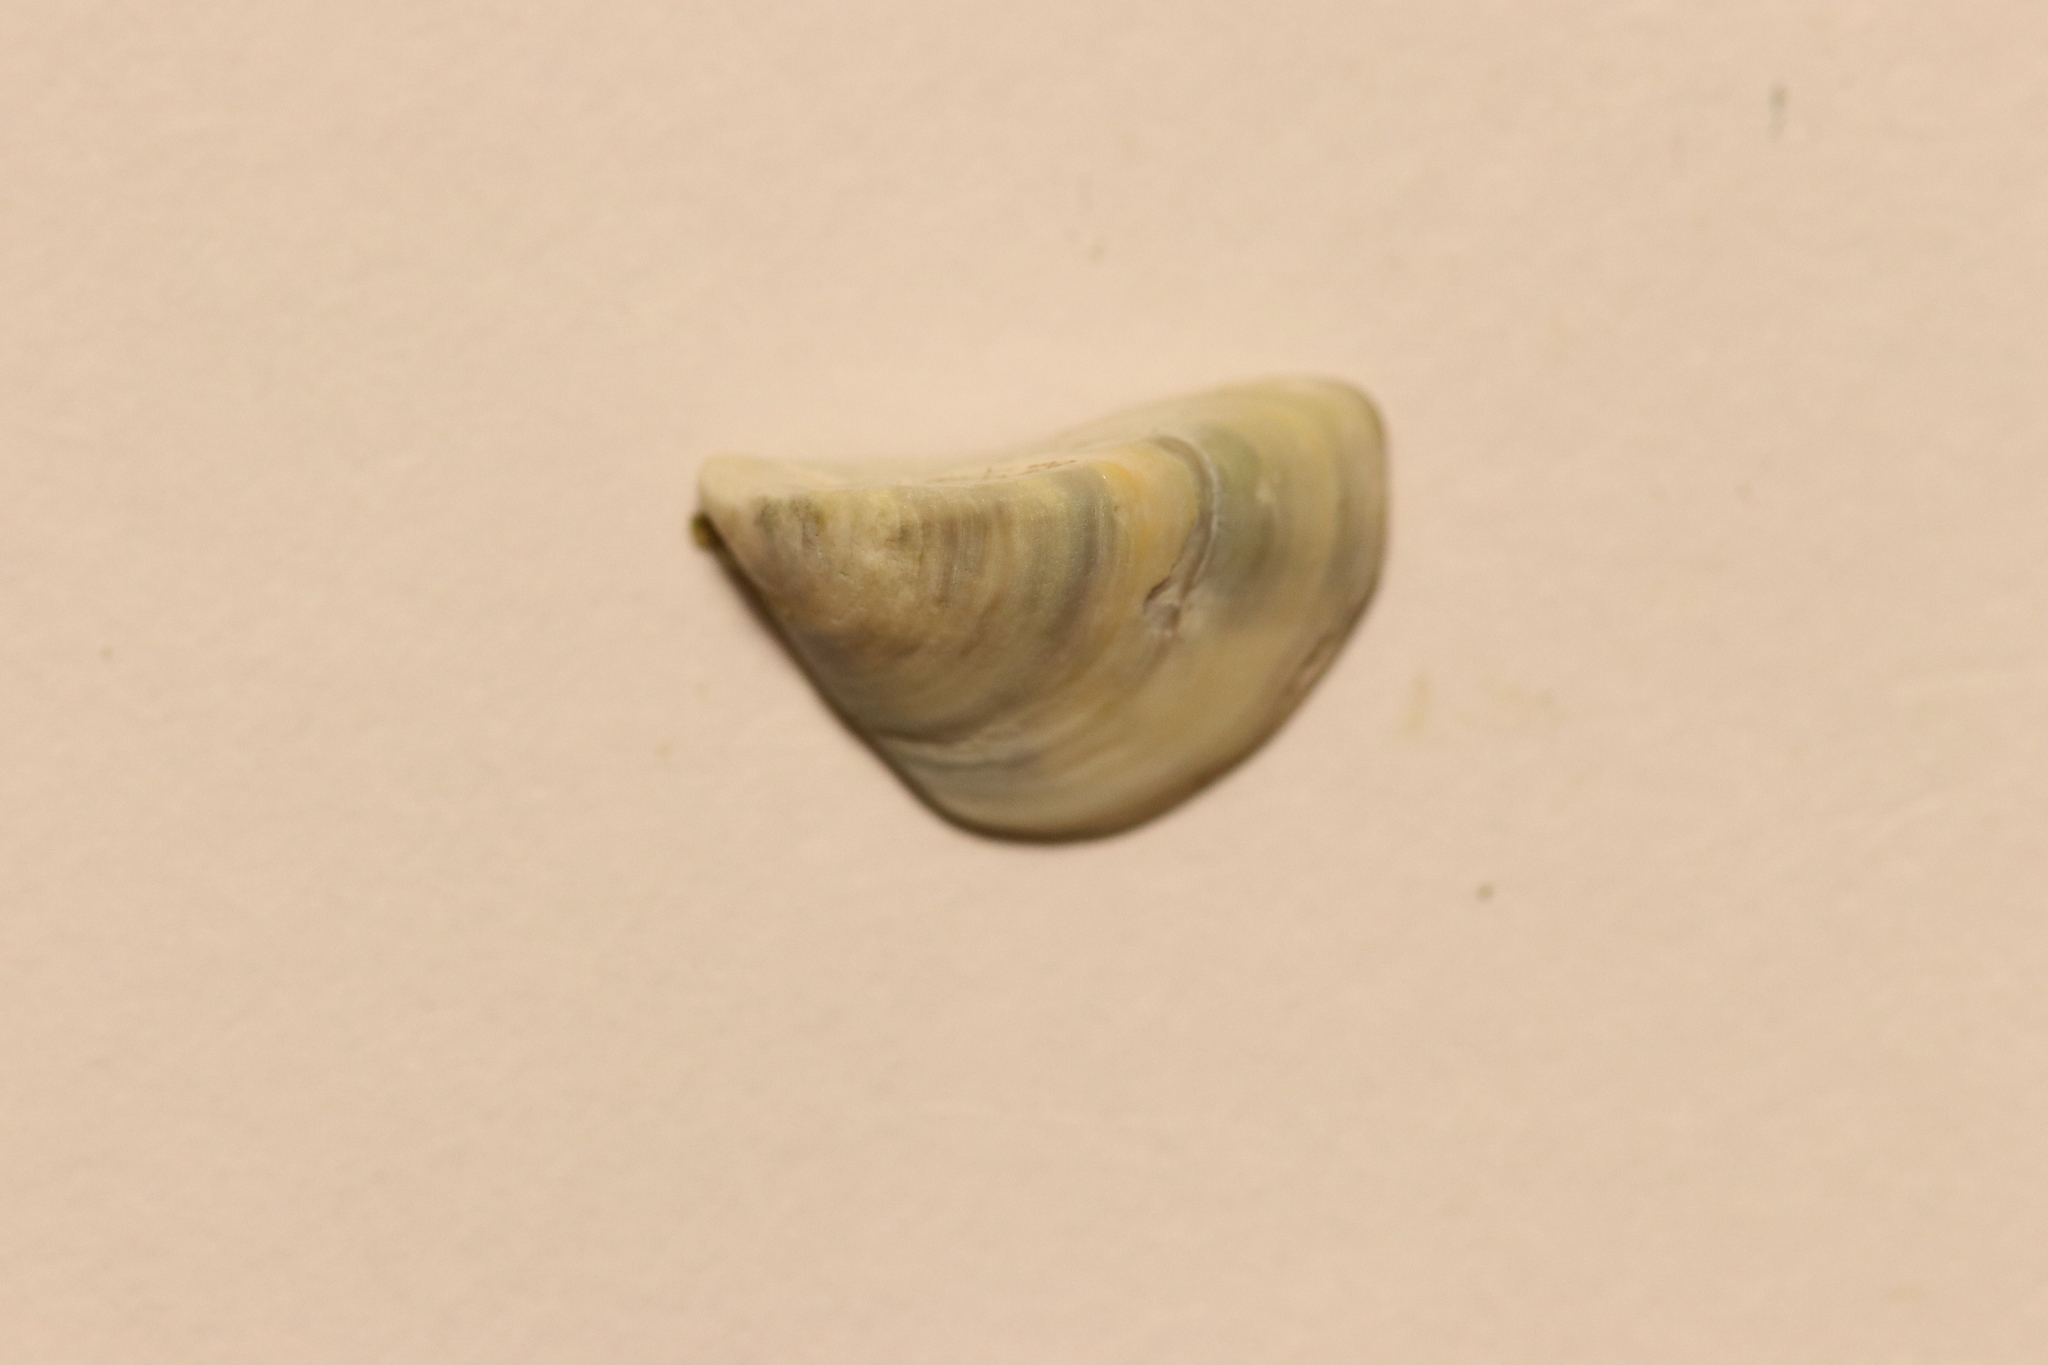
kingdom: Animalia
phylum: Mollusca
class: Bivalvia
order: Myida
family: Dreissenidae
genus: Dreissena
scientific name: Dreissena polymorpha
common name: Zebra mussel
